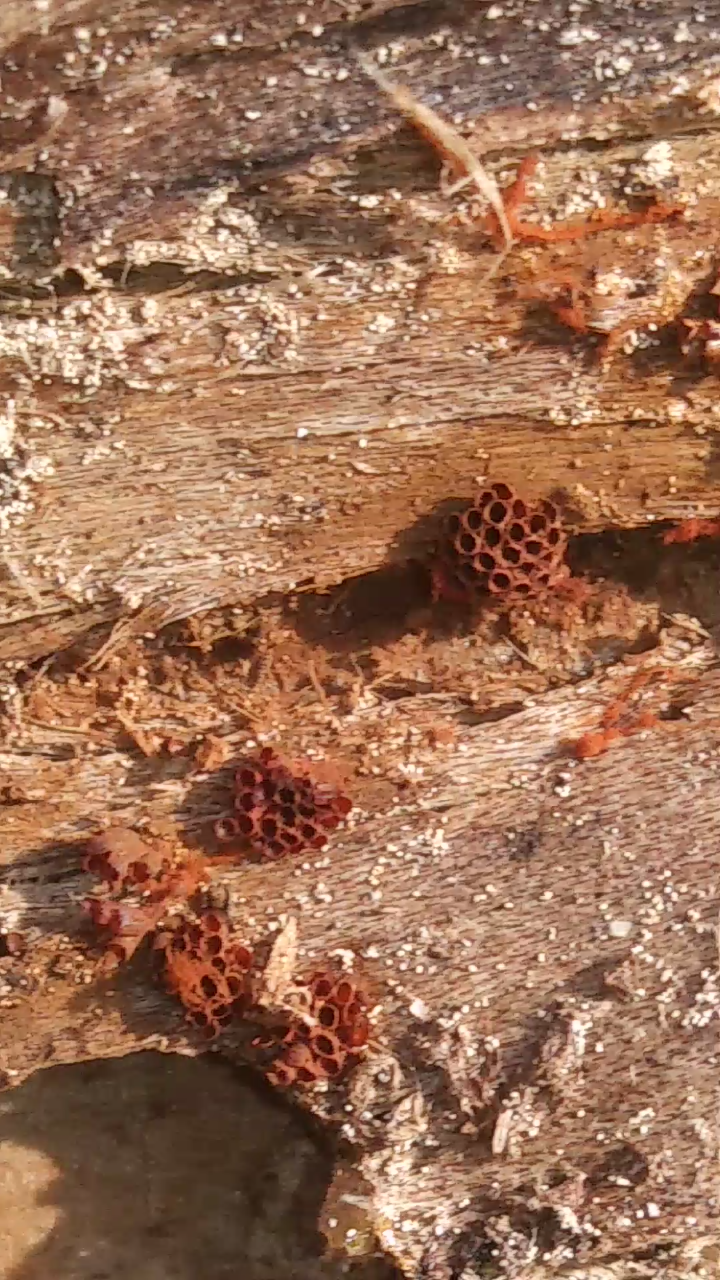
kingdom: Protozoa
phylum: Mycetozoa
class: Myxomycetes
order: Trichiales
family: Trichiaceae
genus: Metatrichia
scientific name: Metatrichia vesparia
